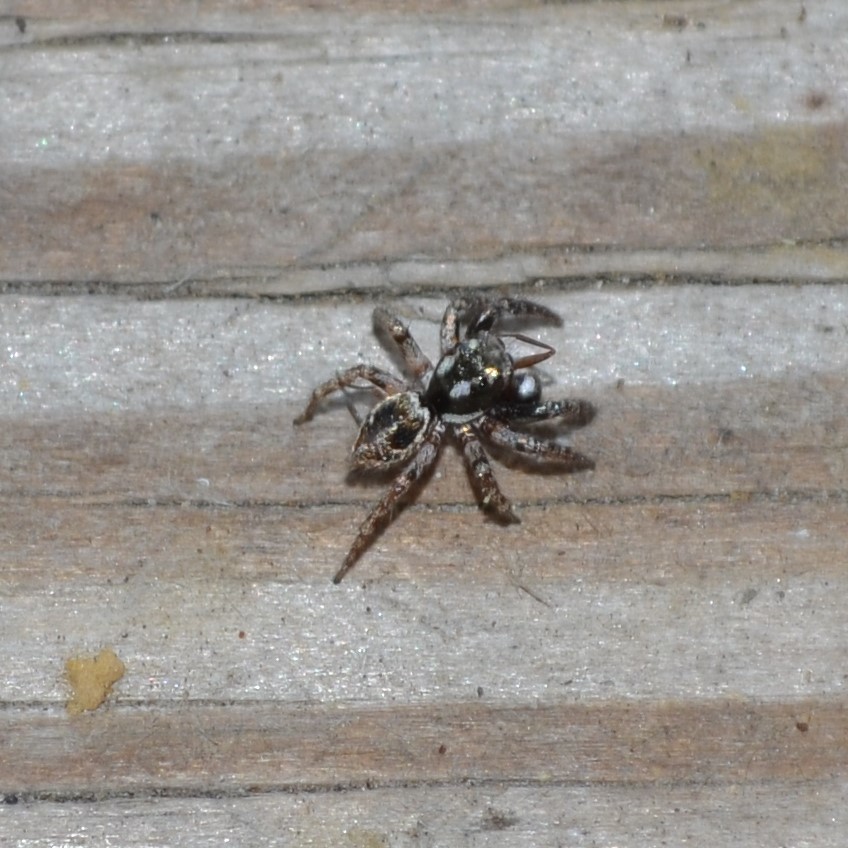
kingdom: Animalia
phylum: Arthropoda
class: Arachnida
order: Araneae
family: Salticidae
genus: Anasaitis
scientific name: Anasaitis canosa
